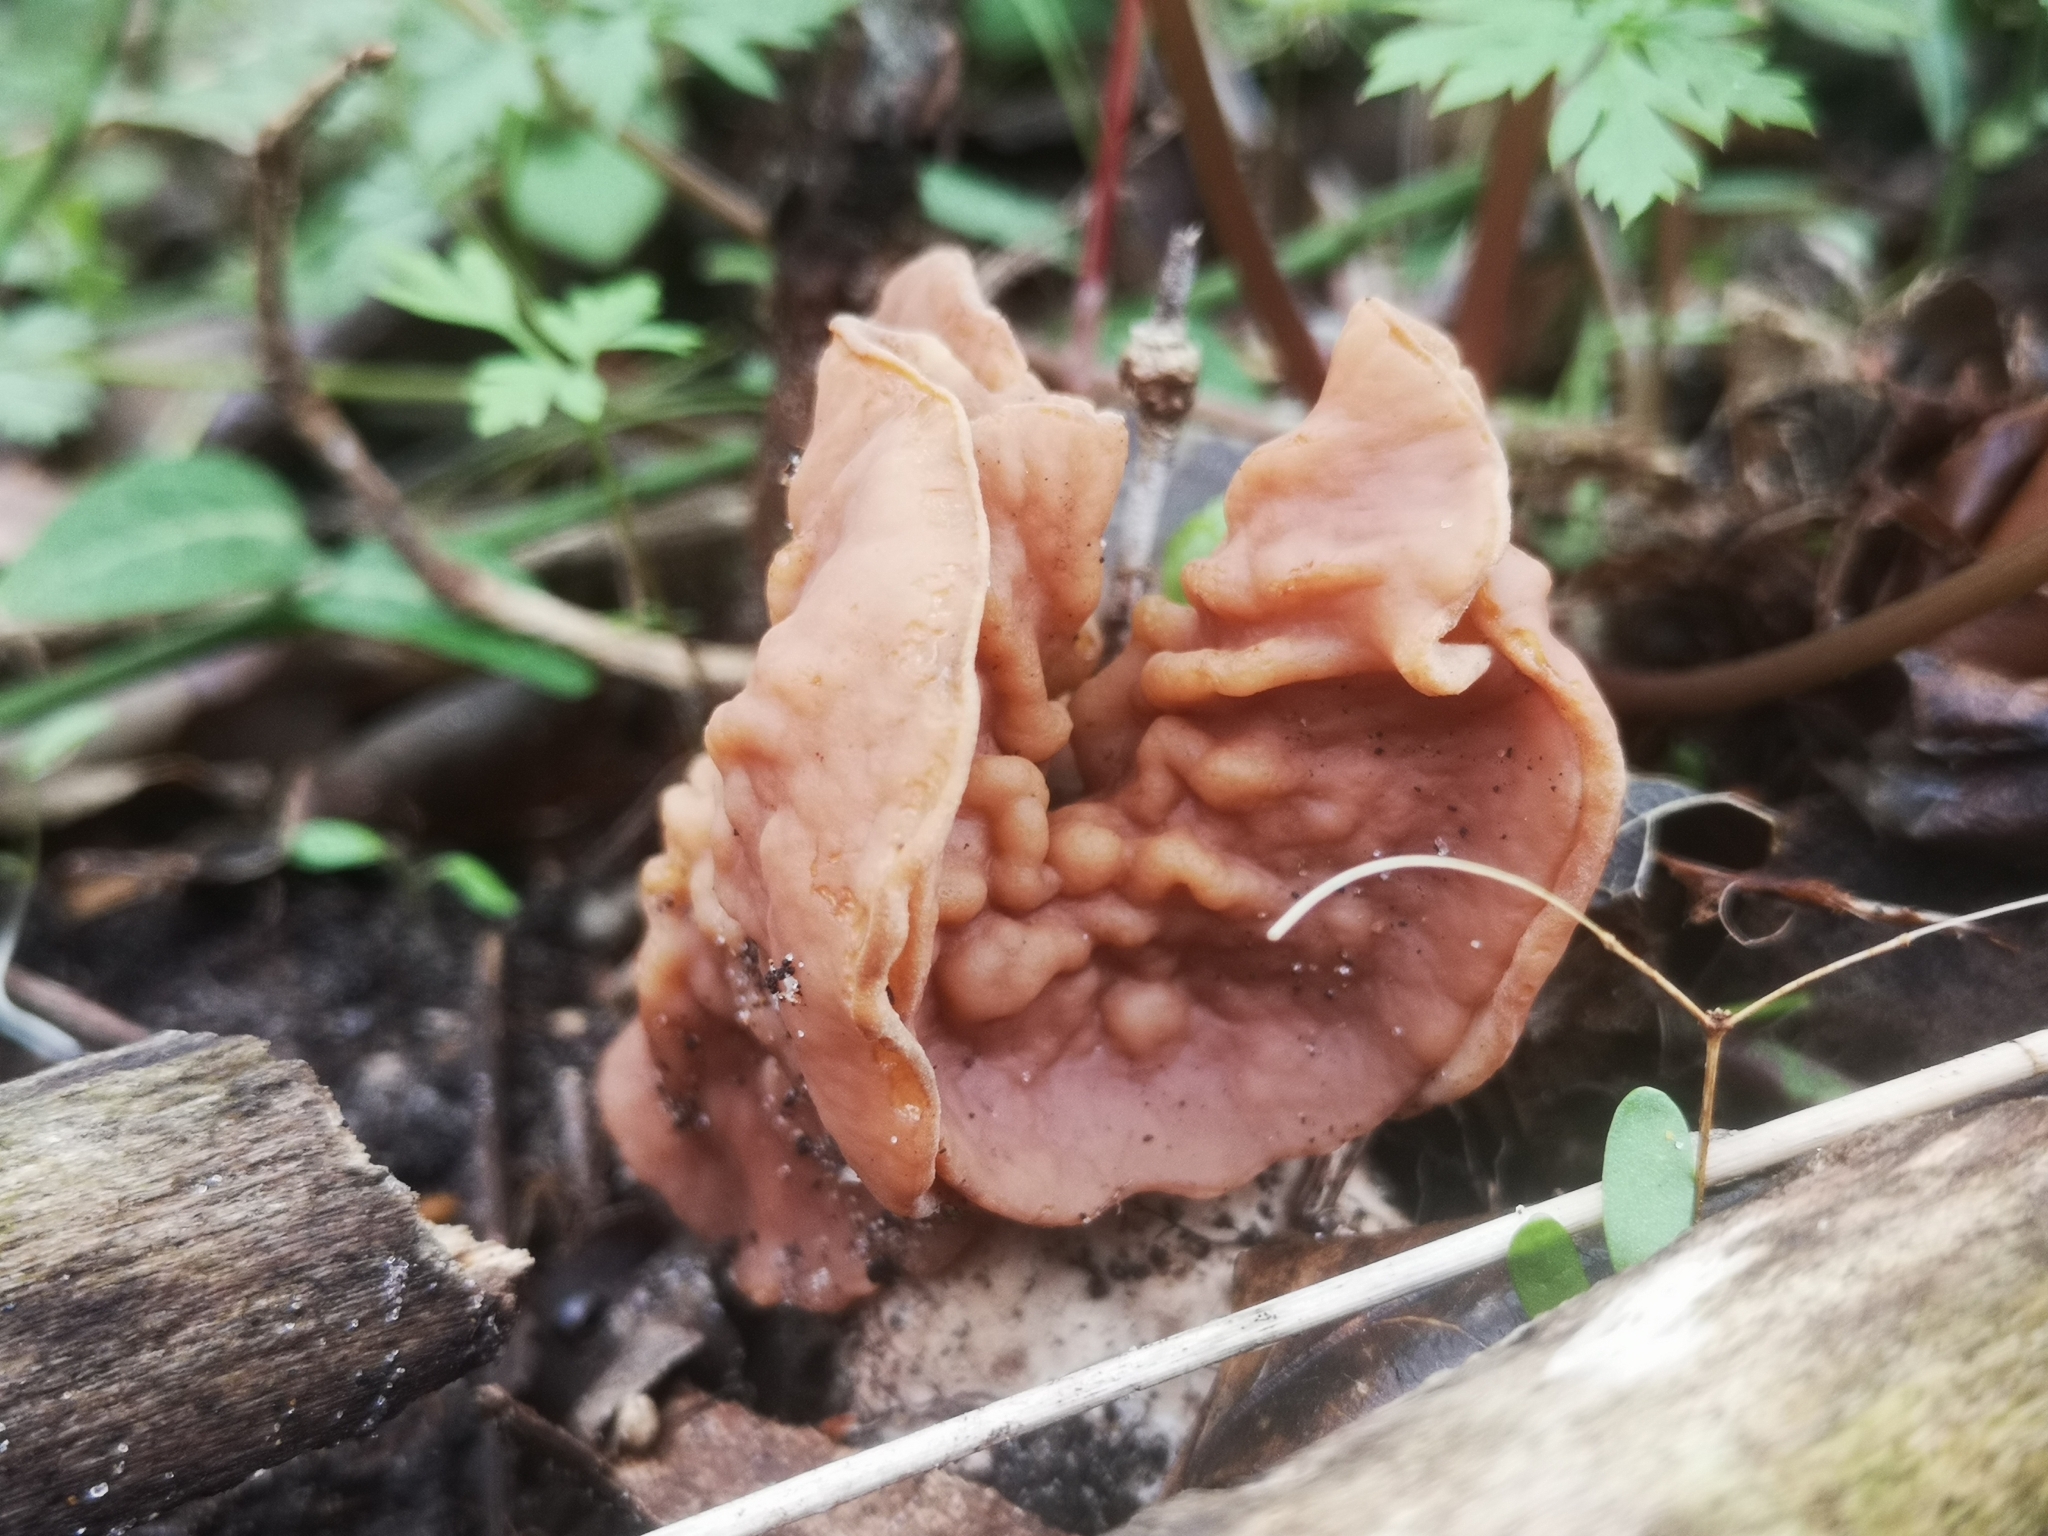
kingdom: Fungi
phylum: Ascomycota
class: Pezizomycetes
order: Pezizales
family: Discinaceae
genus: Discina
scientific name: Discina brunnea
